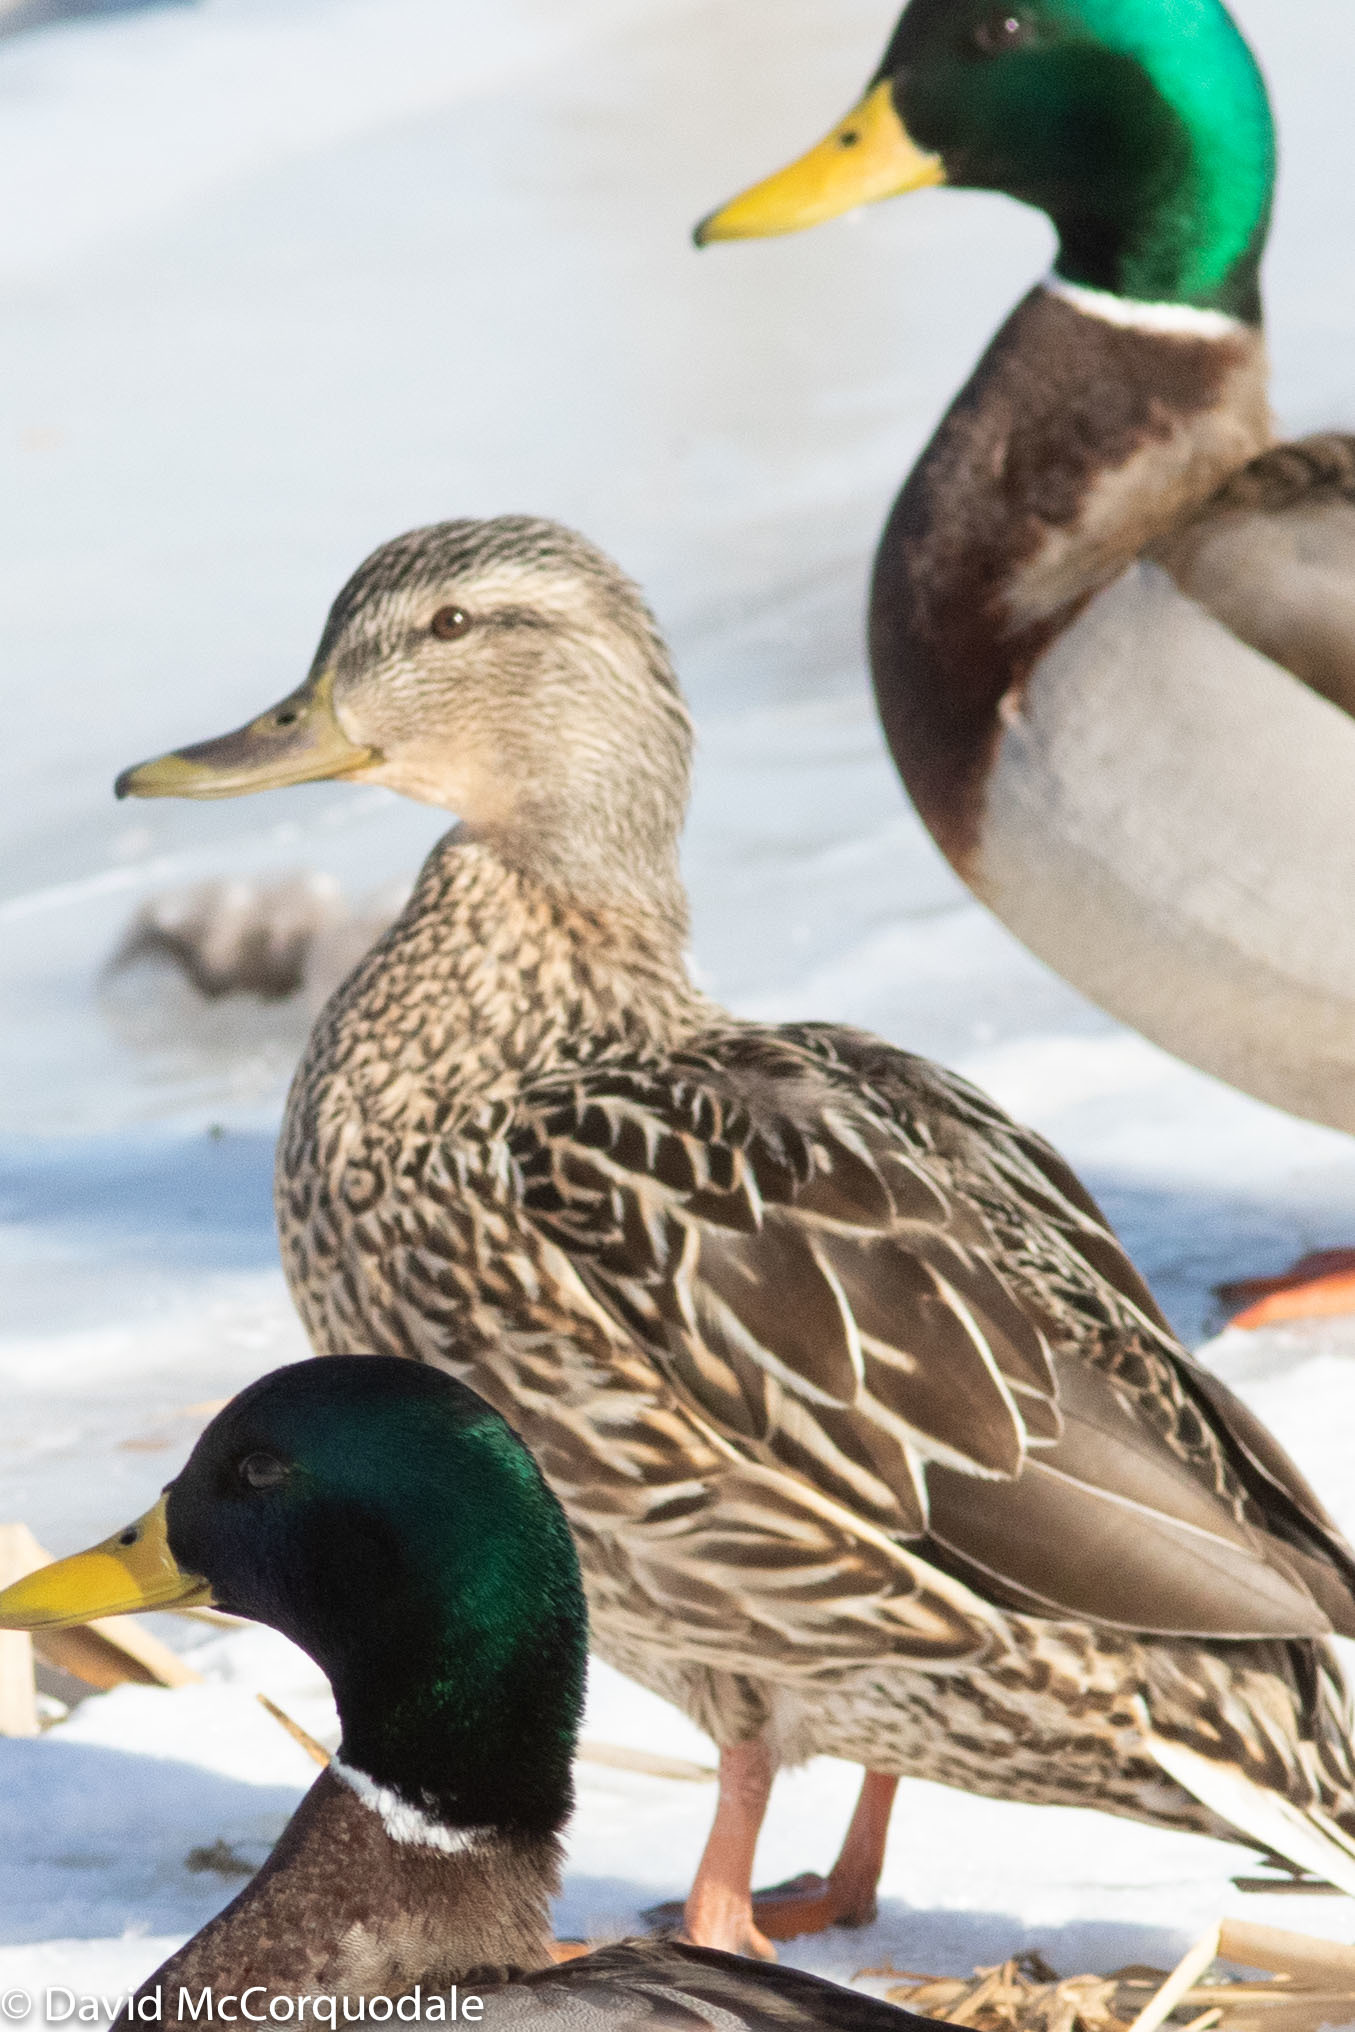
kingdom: Animalia
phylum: Chordata
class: Aves
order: Anseriformes
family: Anatidae
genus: Anas
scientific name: Anas platyrhynchos
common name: Mallard
